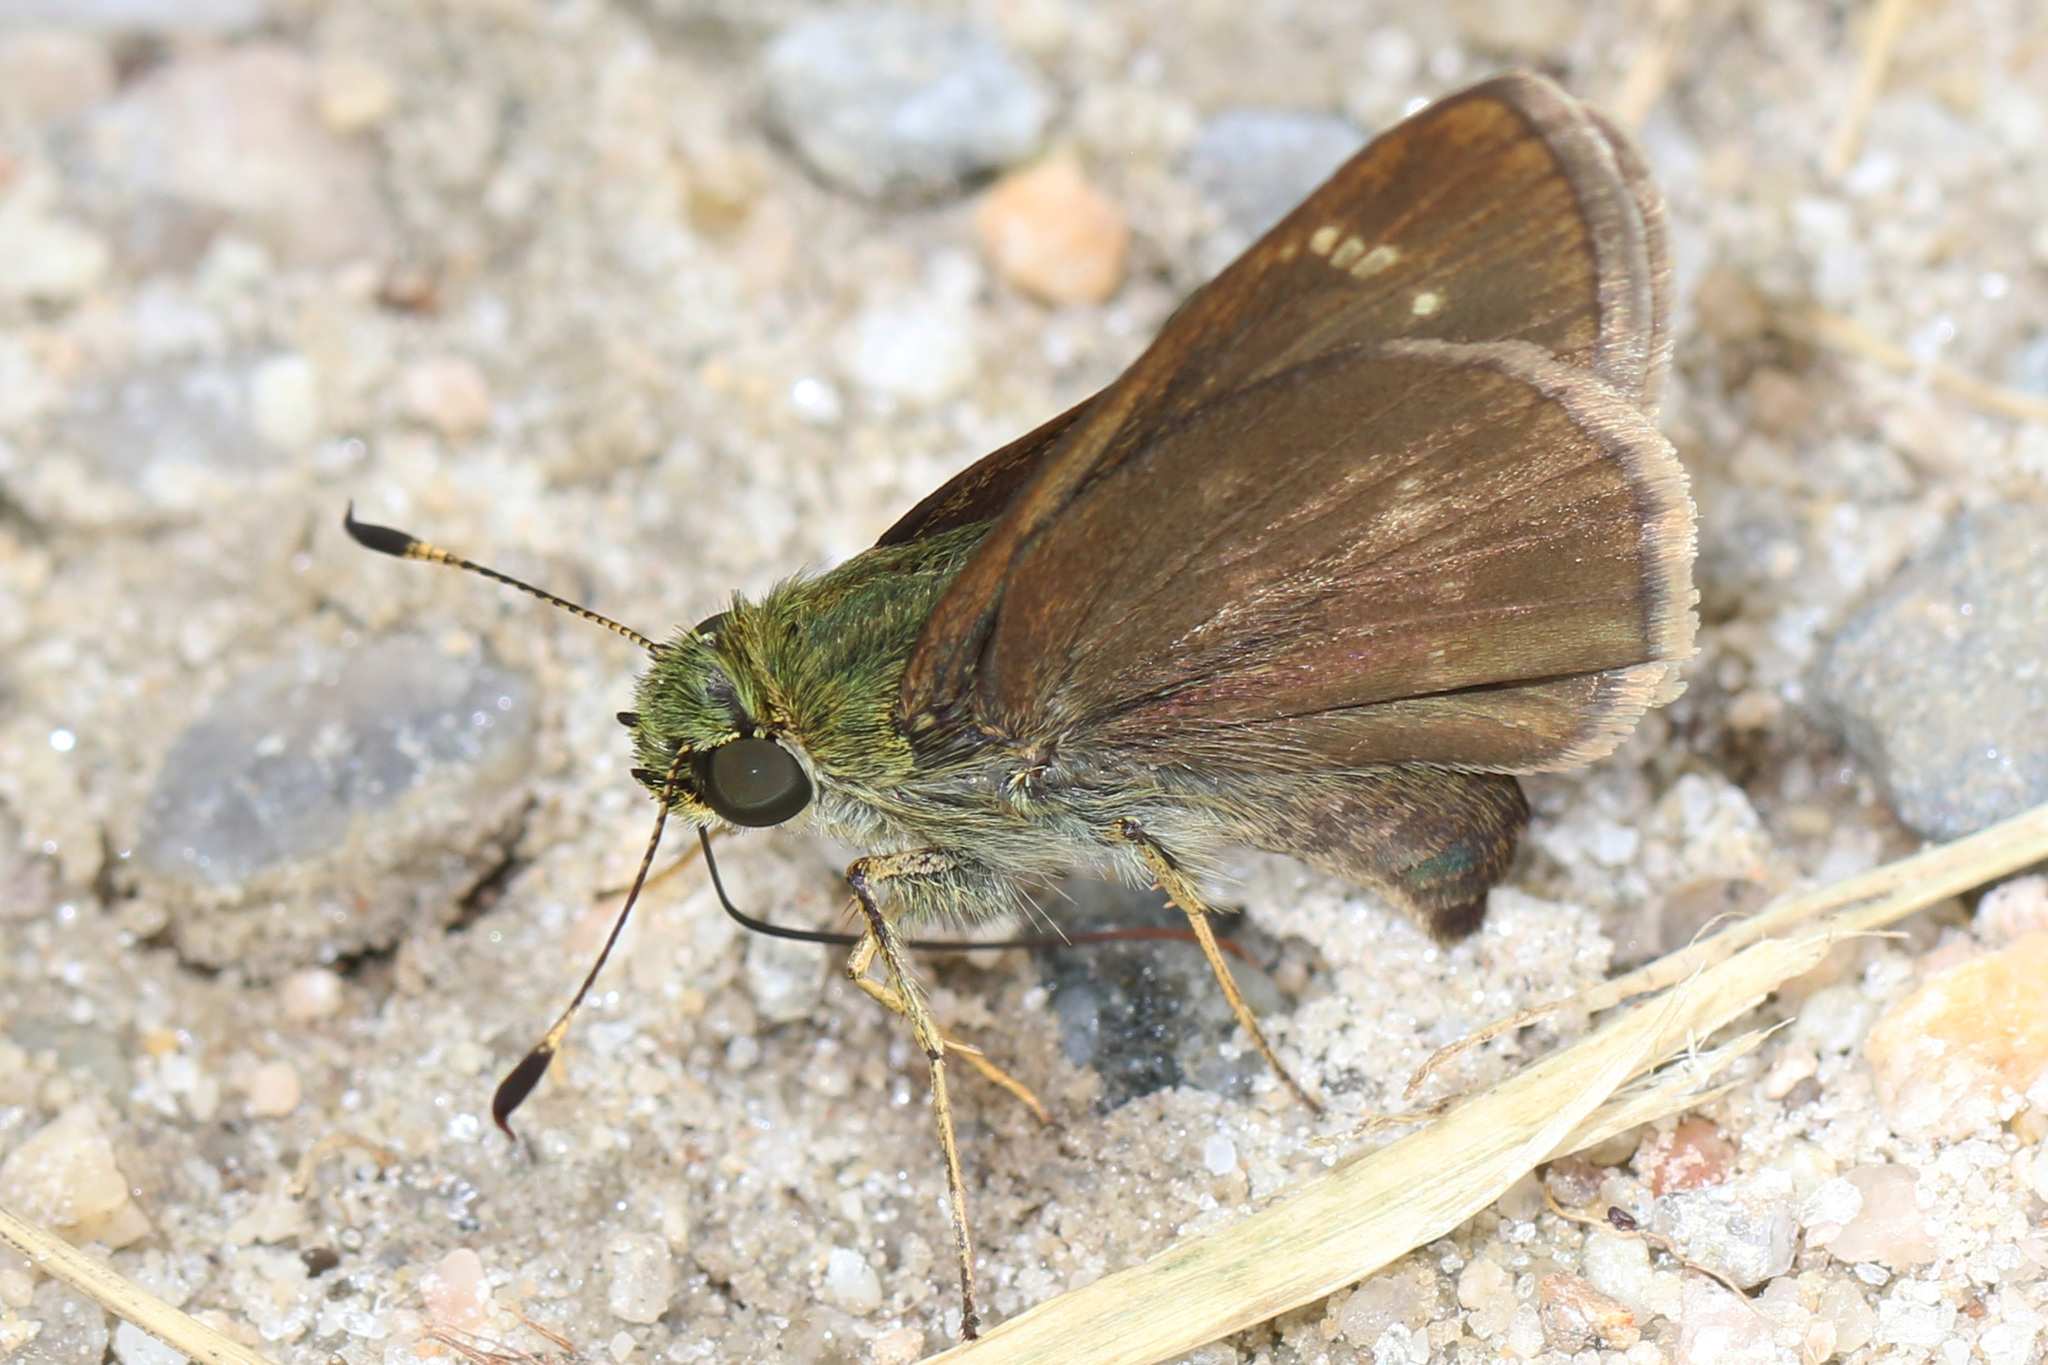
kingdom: Animalia
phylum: Arthropoda
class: Insecta
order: Lepidoptera
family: Hesperiidae
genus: Euphyes
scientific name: Euphyes vestris
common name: Dun skipper
